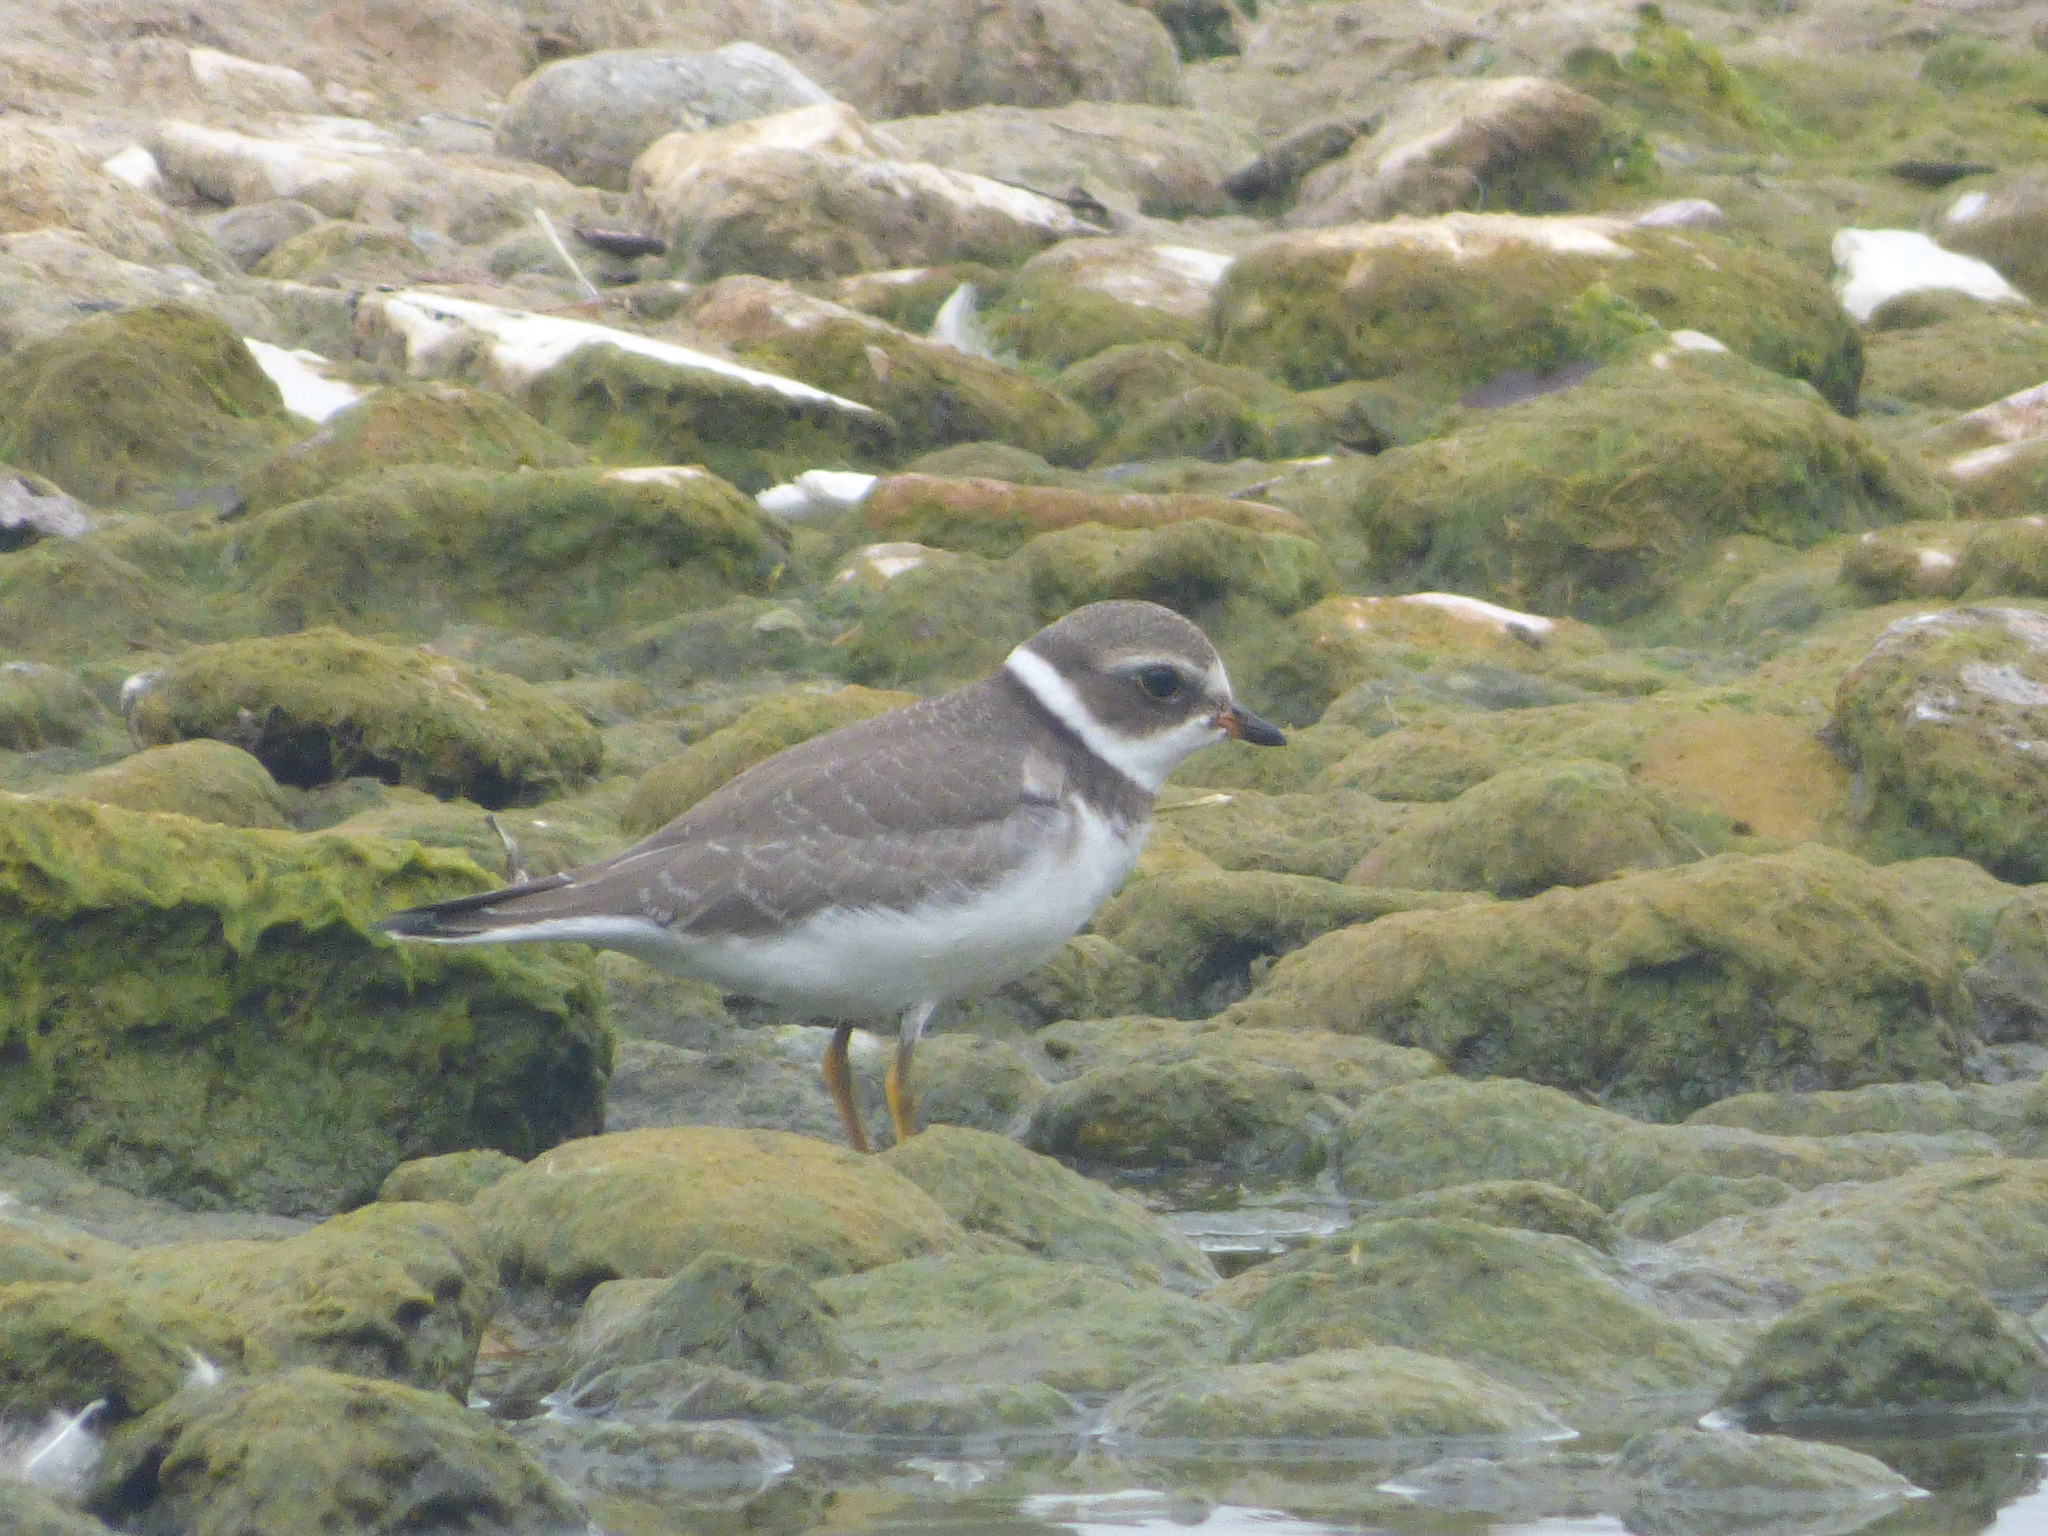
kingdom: Animalia
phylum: Chordata
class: Aves
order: Charadriiformes
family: Charadriidae
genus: Charadrius
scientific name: Charadrius semipalmatus
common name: Semipalmated plover
